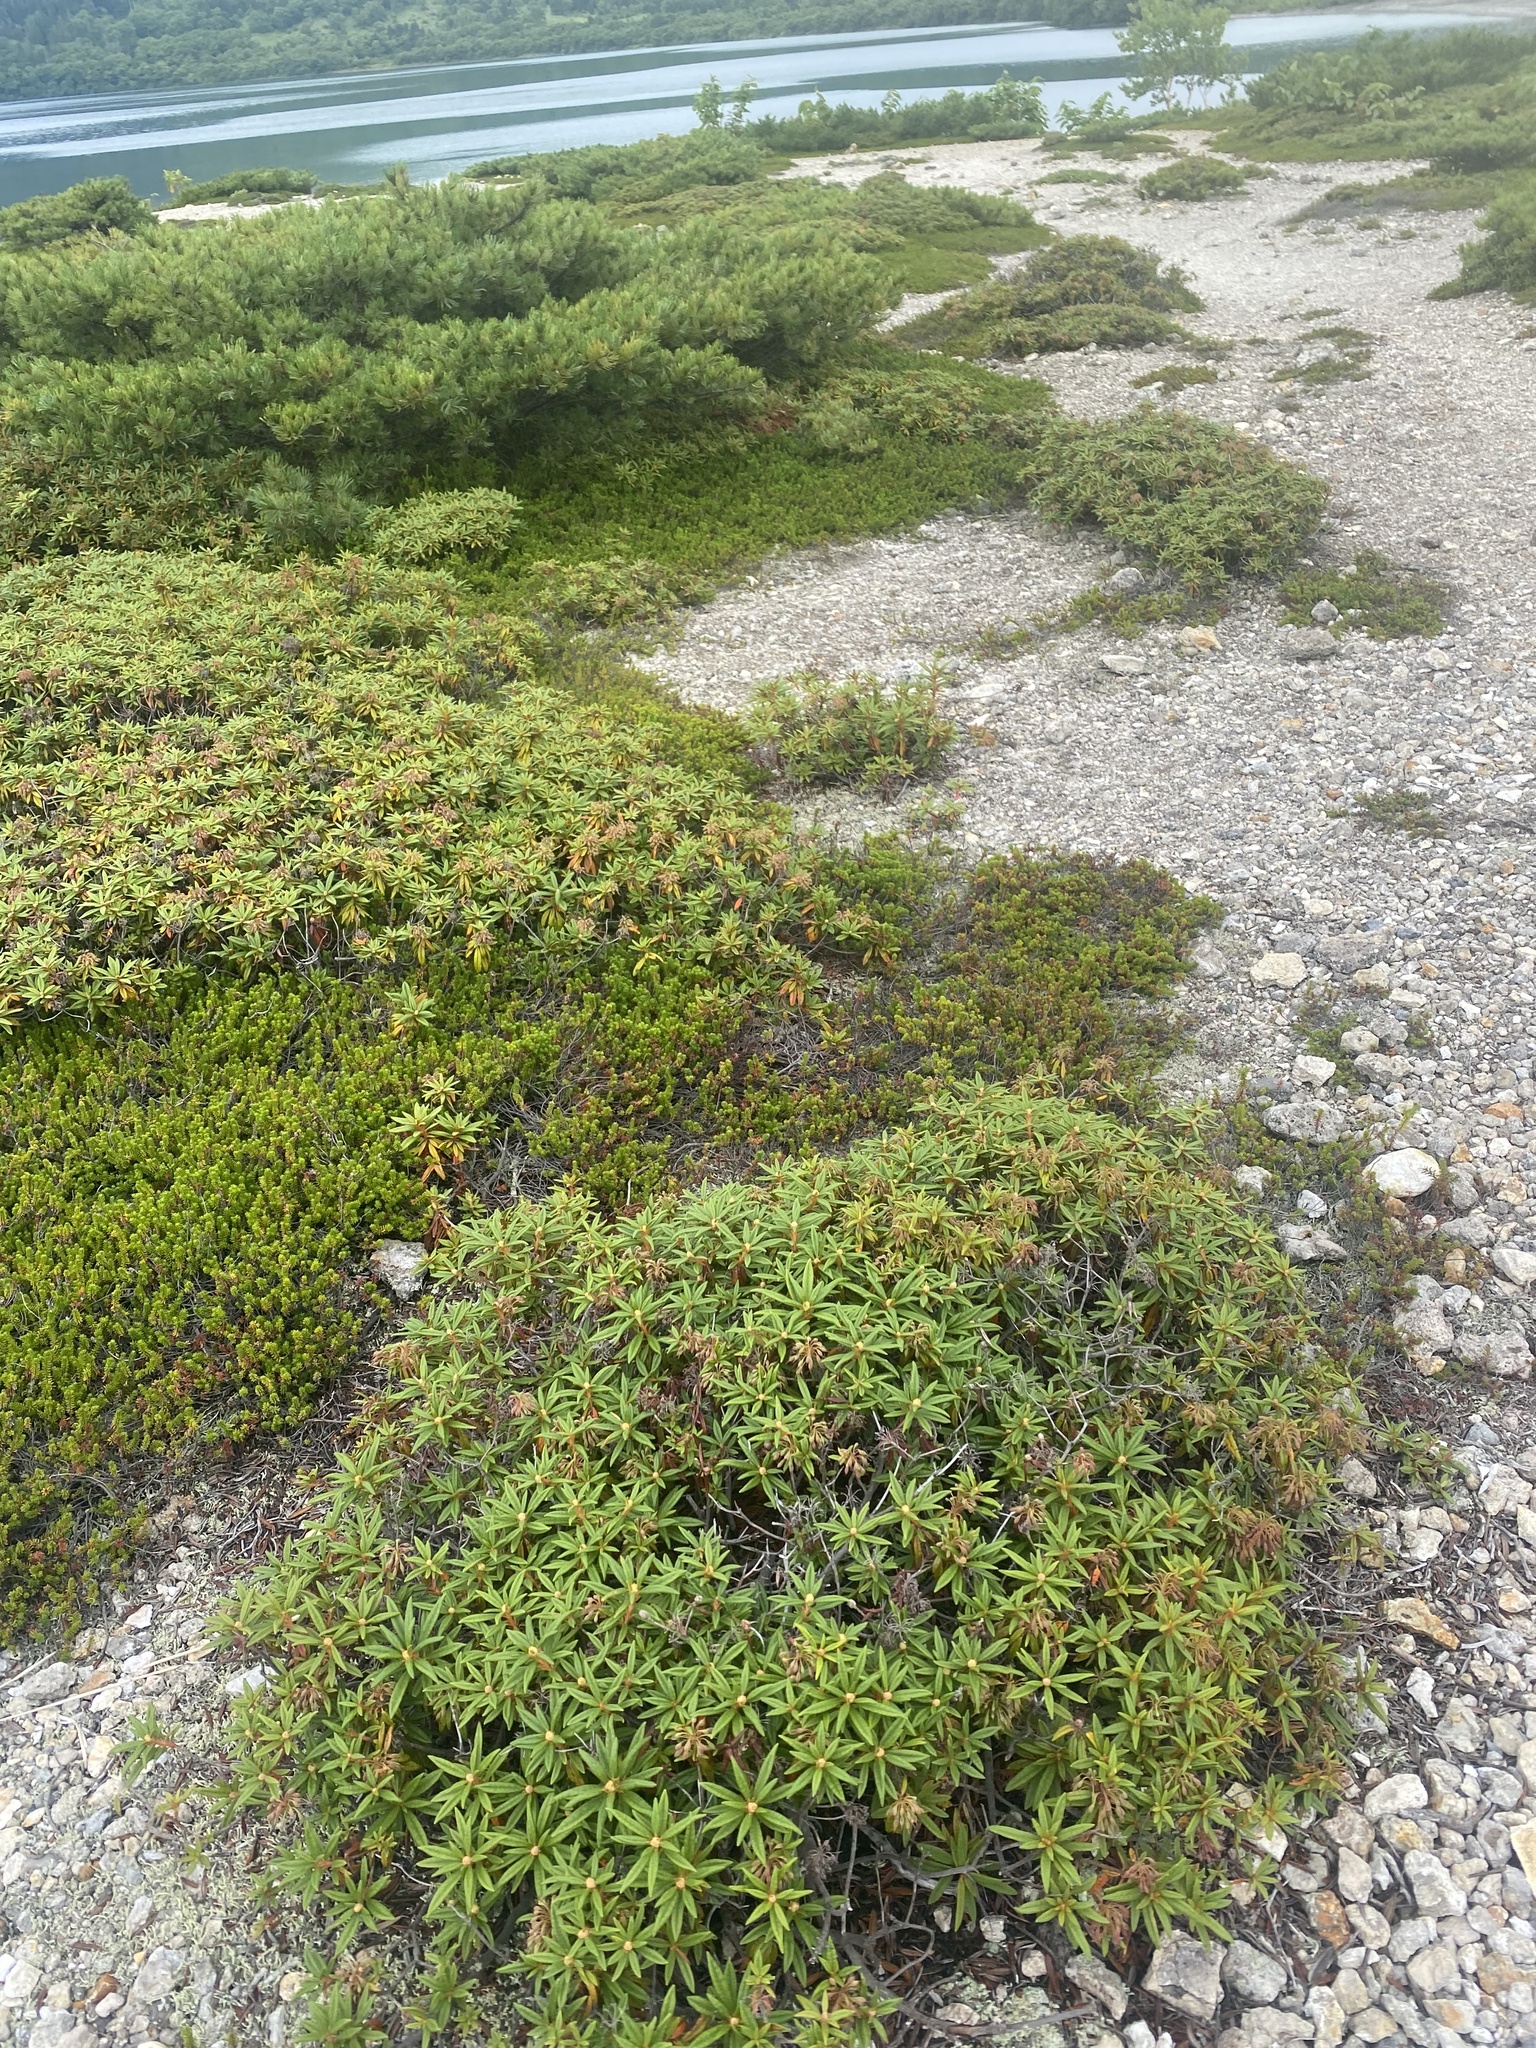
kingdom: Plantae
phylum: Tracheophyta
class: Magnoliopsida
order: Ericales
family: Ericaceae
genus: Rhododendron
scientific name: Rhododendron tomentosum
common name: Marsh labrador tea
